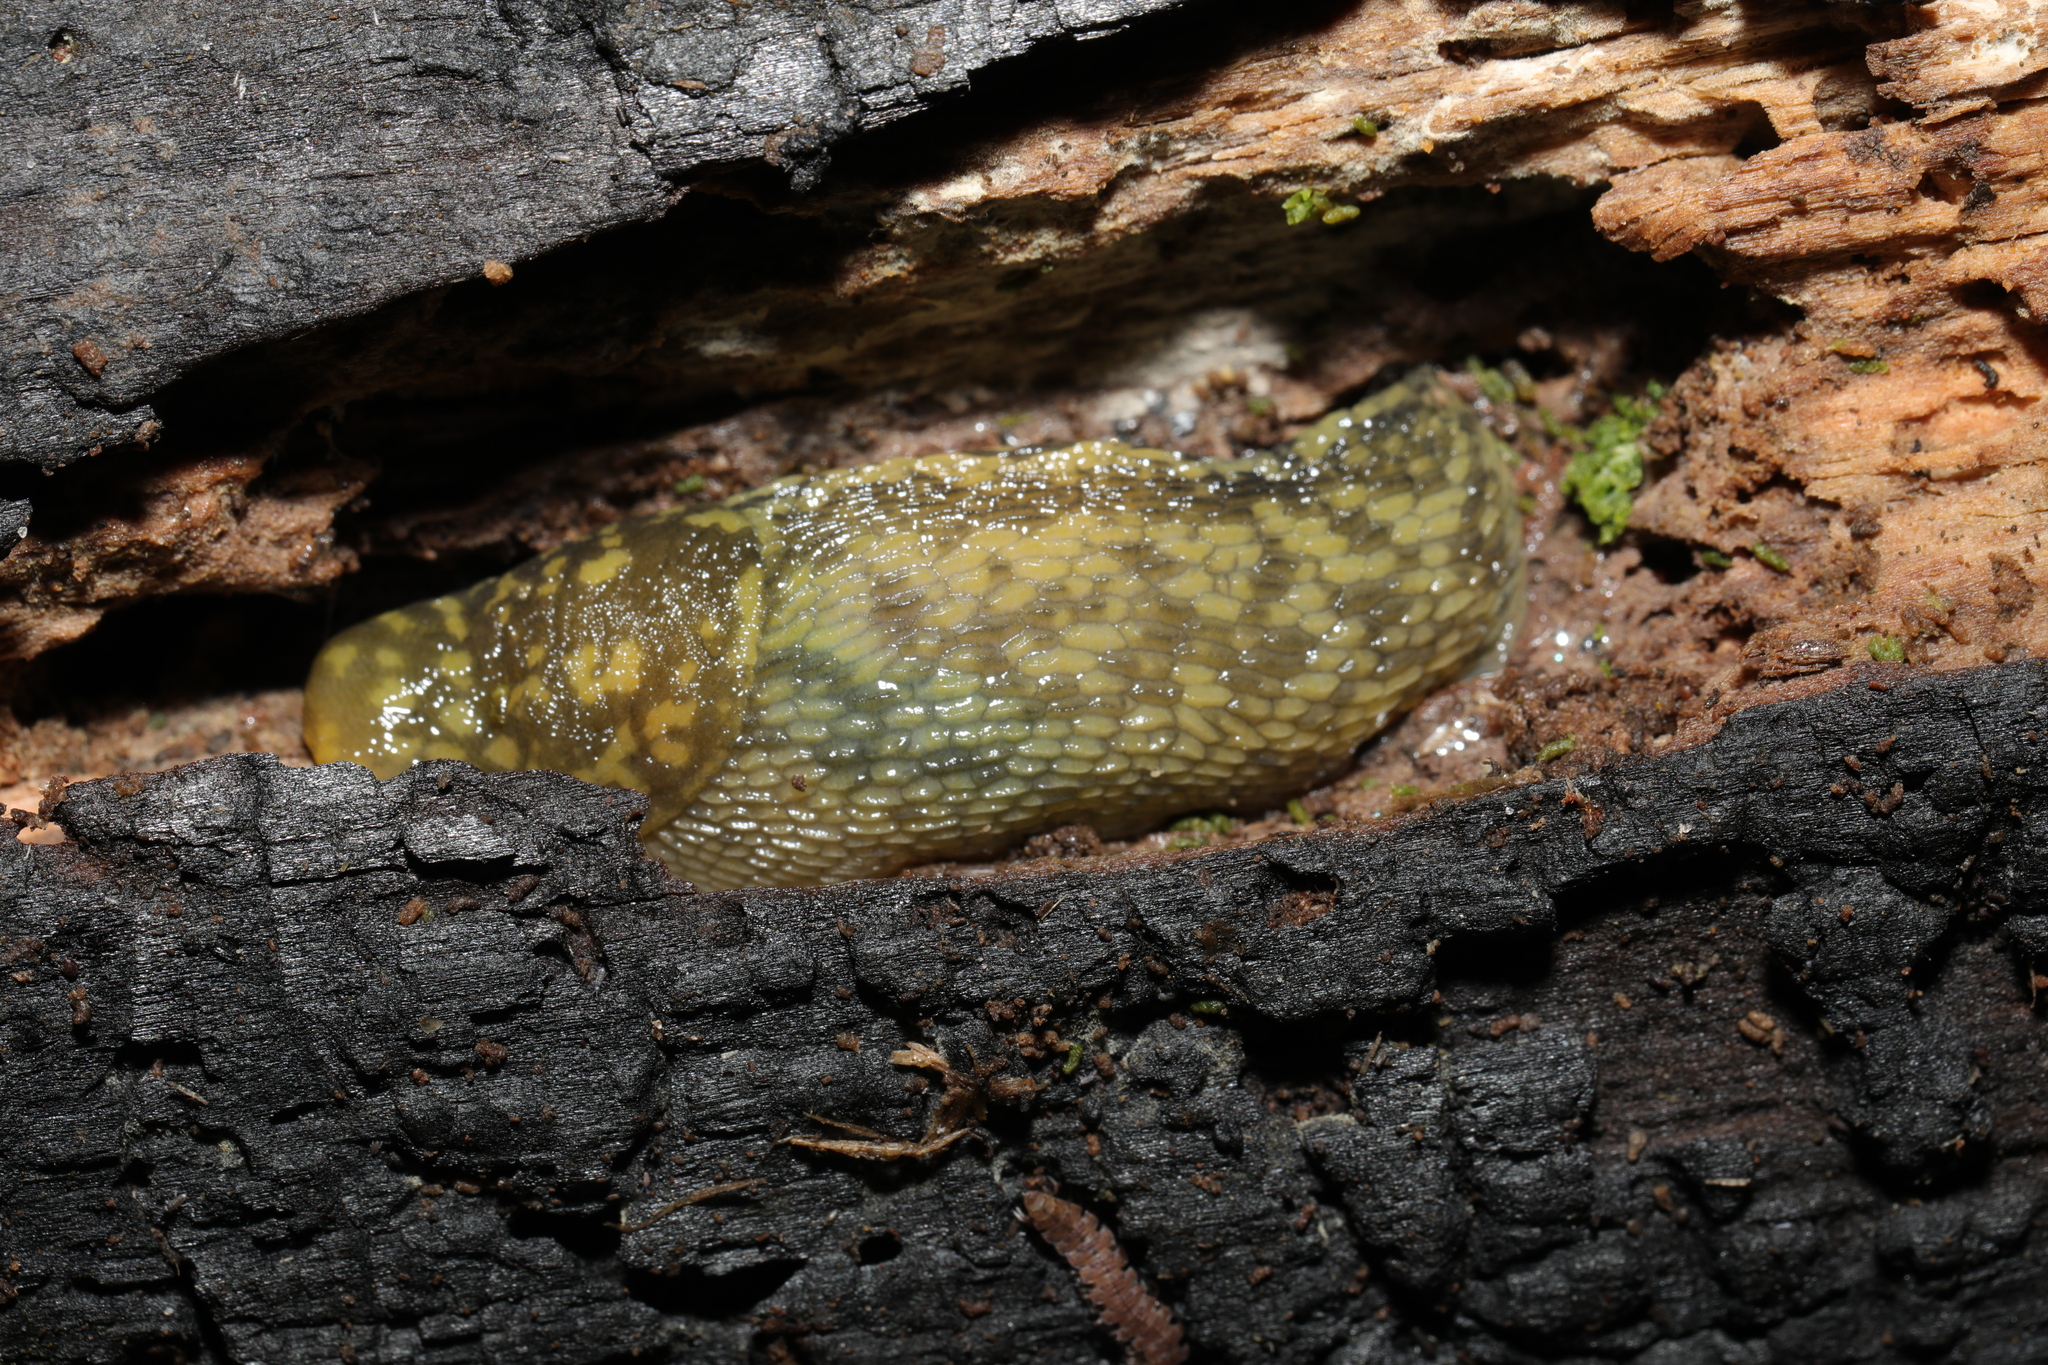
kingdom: Animalia
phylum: Mollusca
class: Gastropoda
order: Stylommatophora
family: Limacidae
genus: Limacus
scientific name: Limacus maculatus
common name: Irish yellow slug
